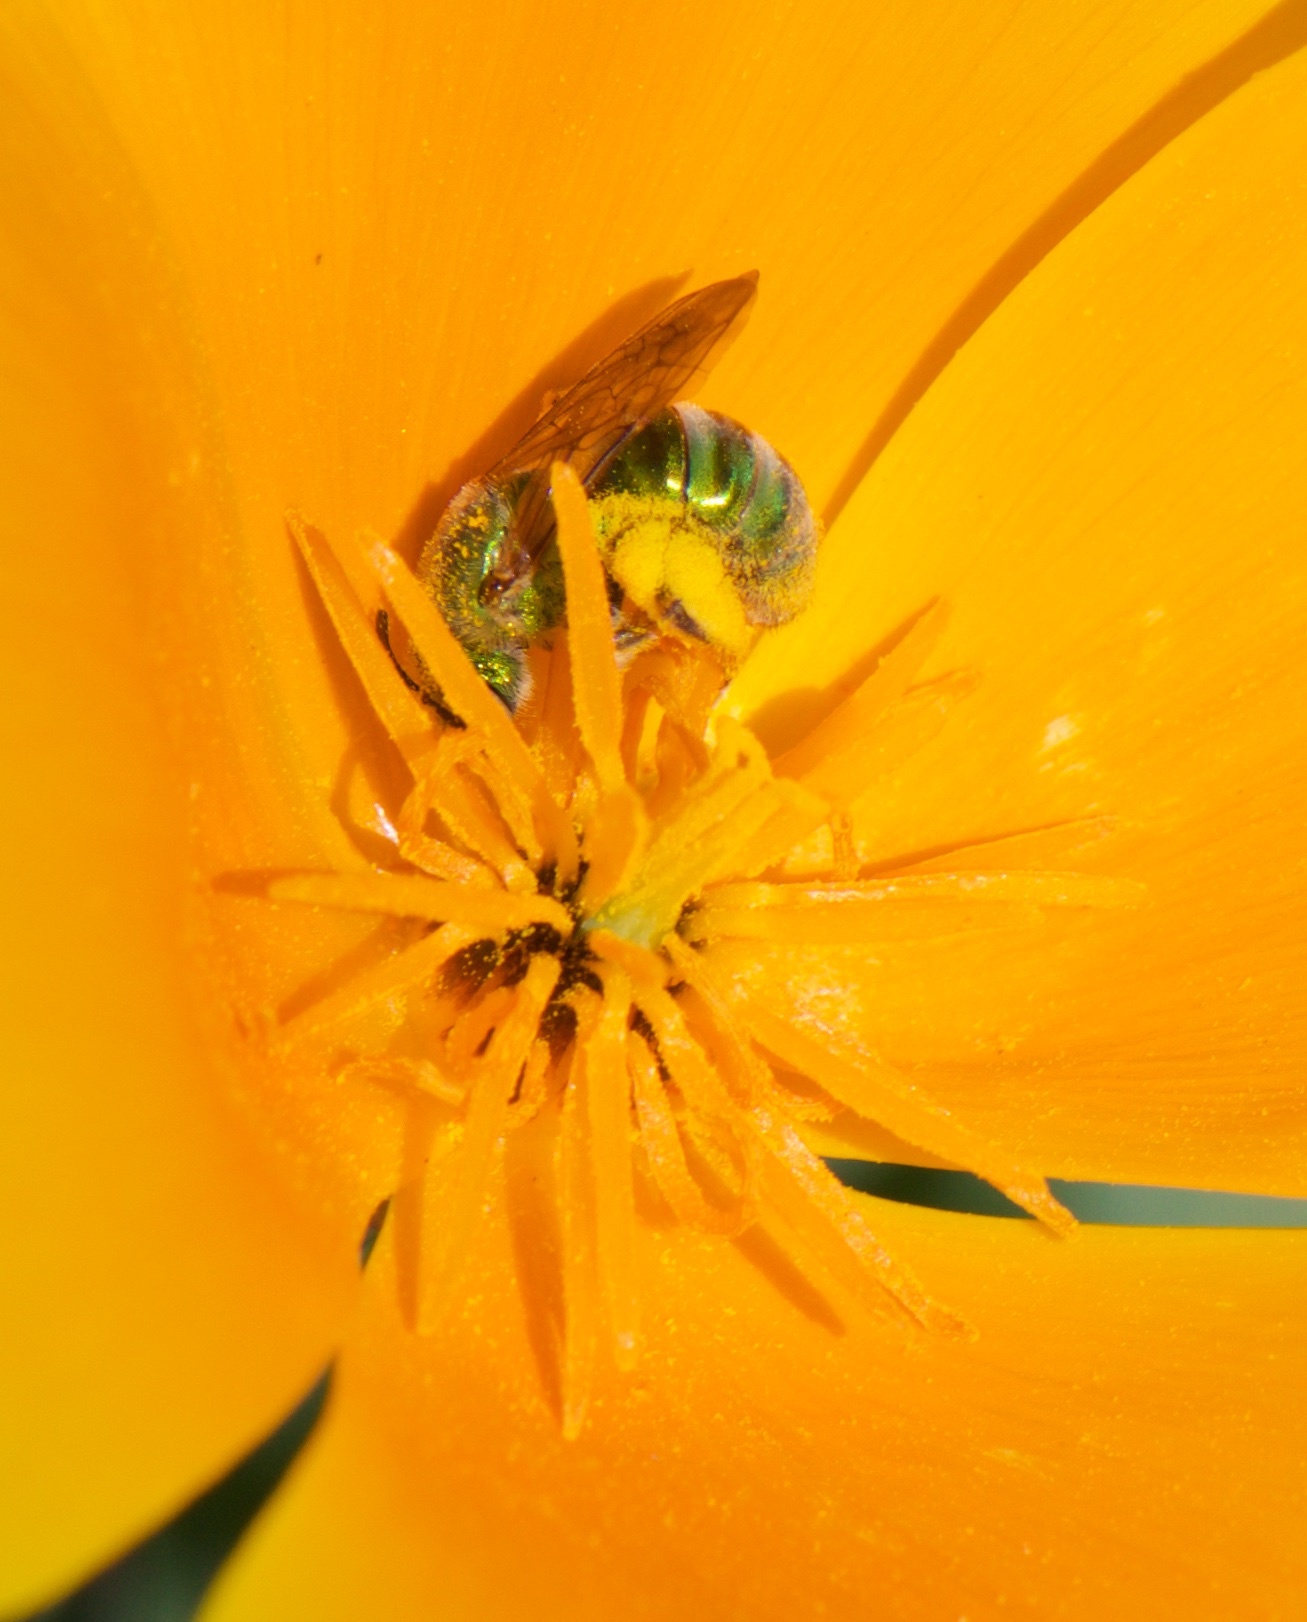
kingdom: Animalia
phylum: Arthropoda
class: Insecta
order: Hymenoptera
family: Halictidae
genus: Agapostemon
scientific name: Agapostemon texanus
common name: Texas striped sweat bee
